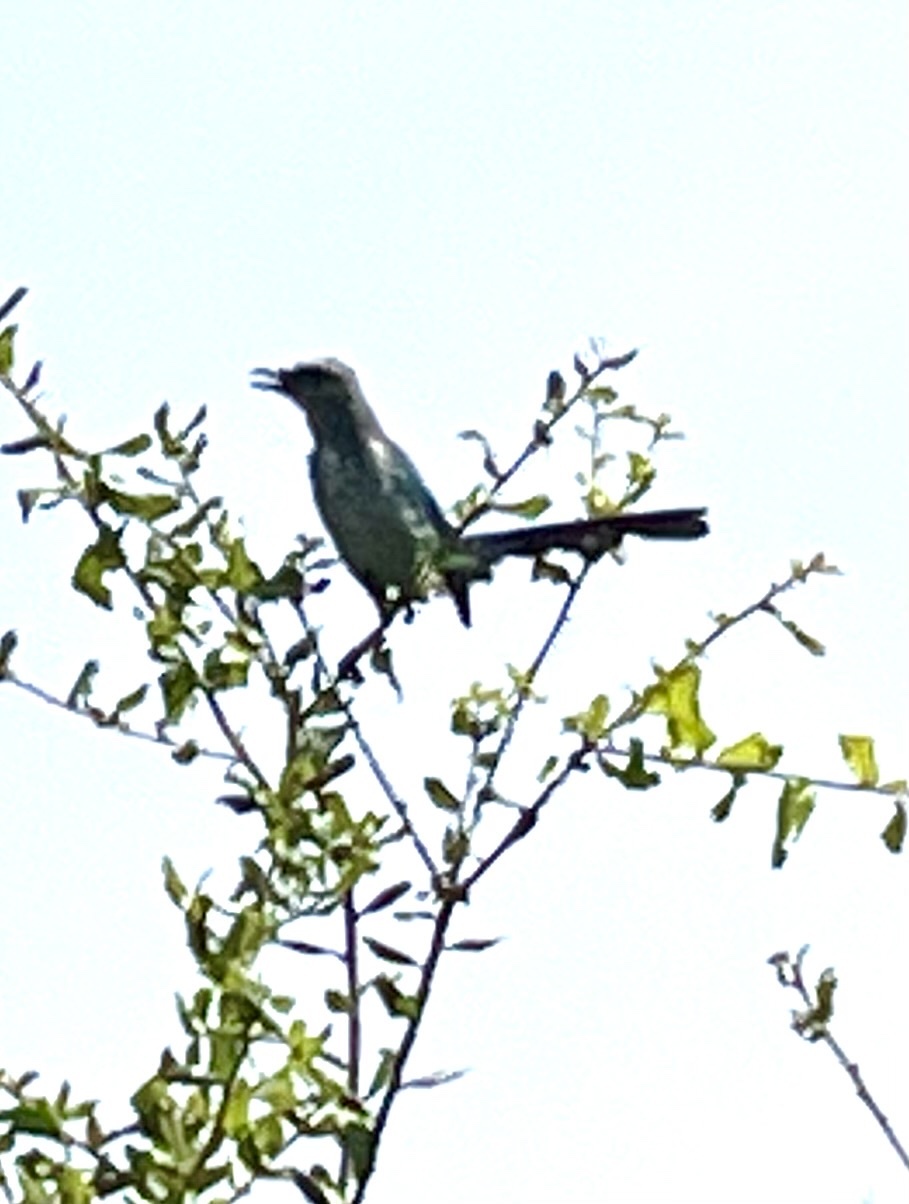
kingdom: Animalia
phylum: Chordata
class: Aves
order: Passeriformes
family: Corvidae
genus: Aphelocoma
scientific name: Aphelocoma coerulescens
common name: Florida scrub jay
